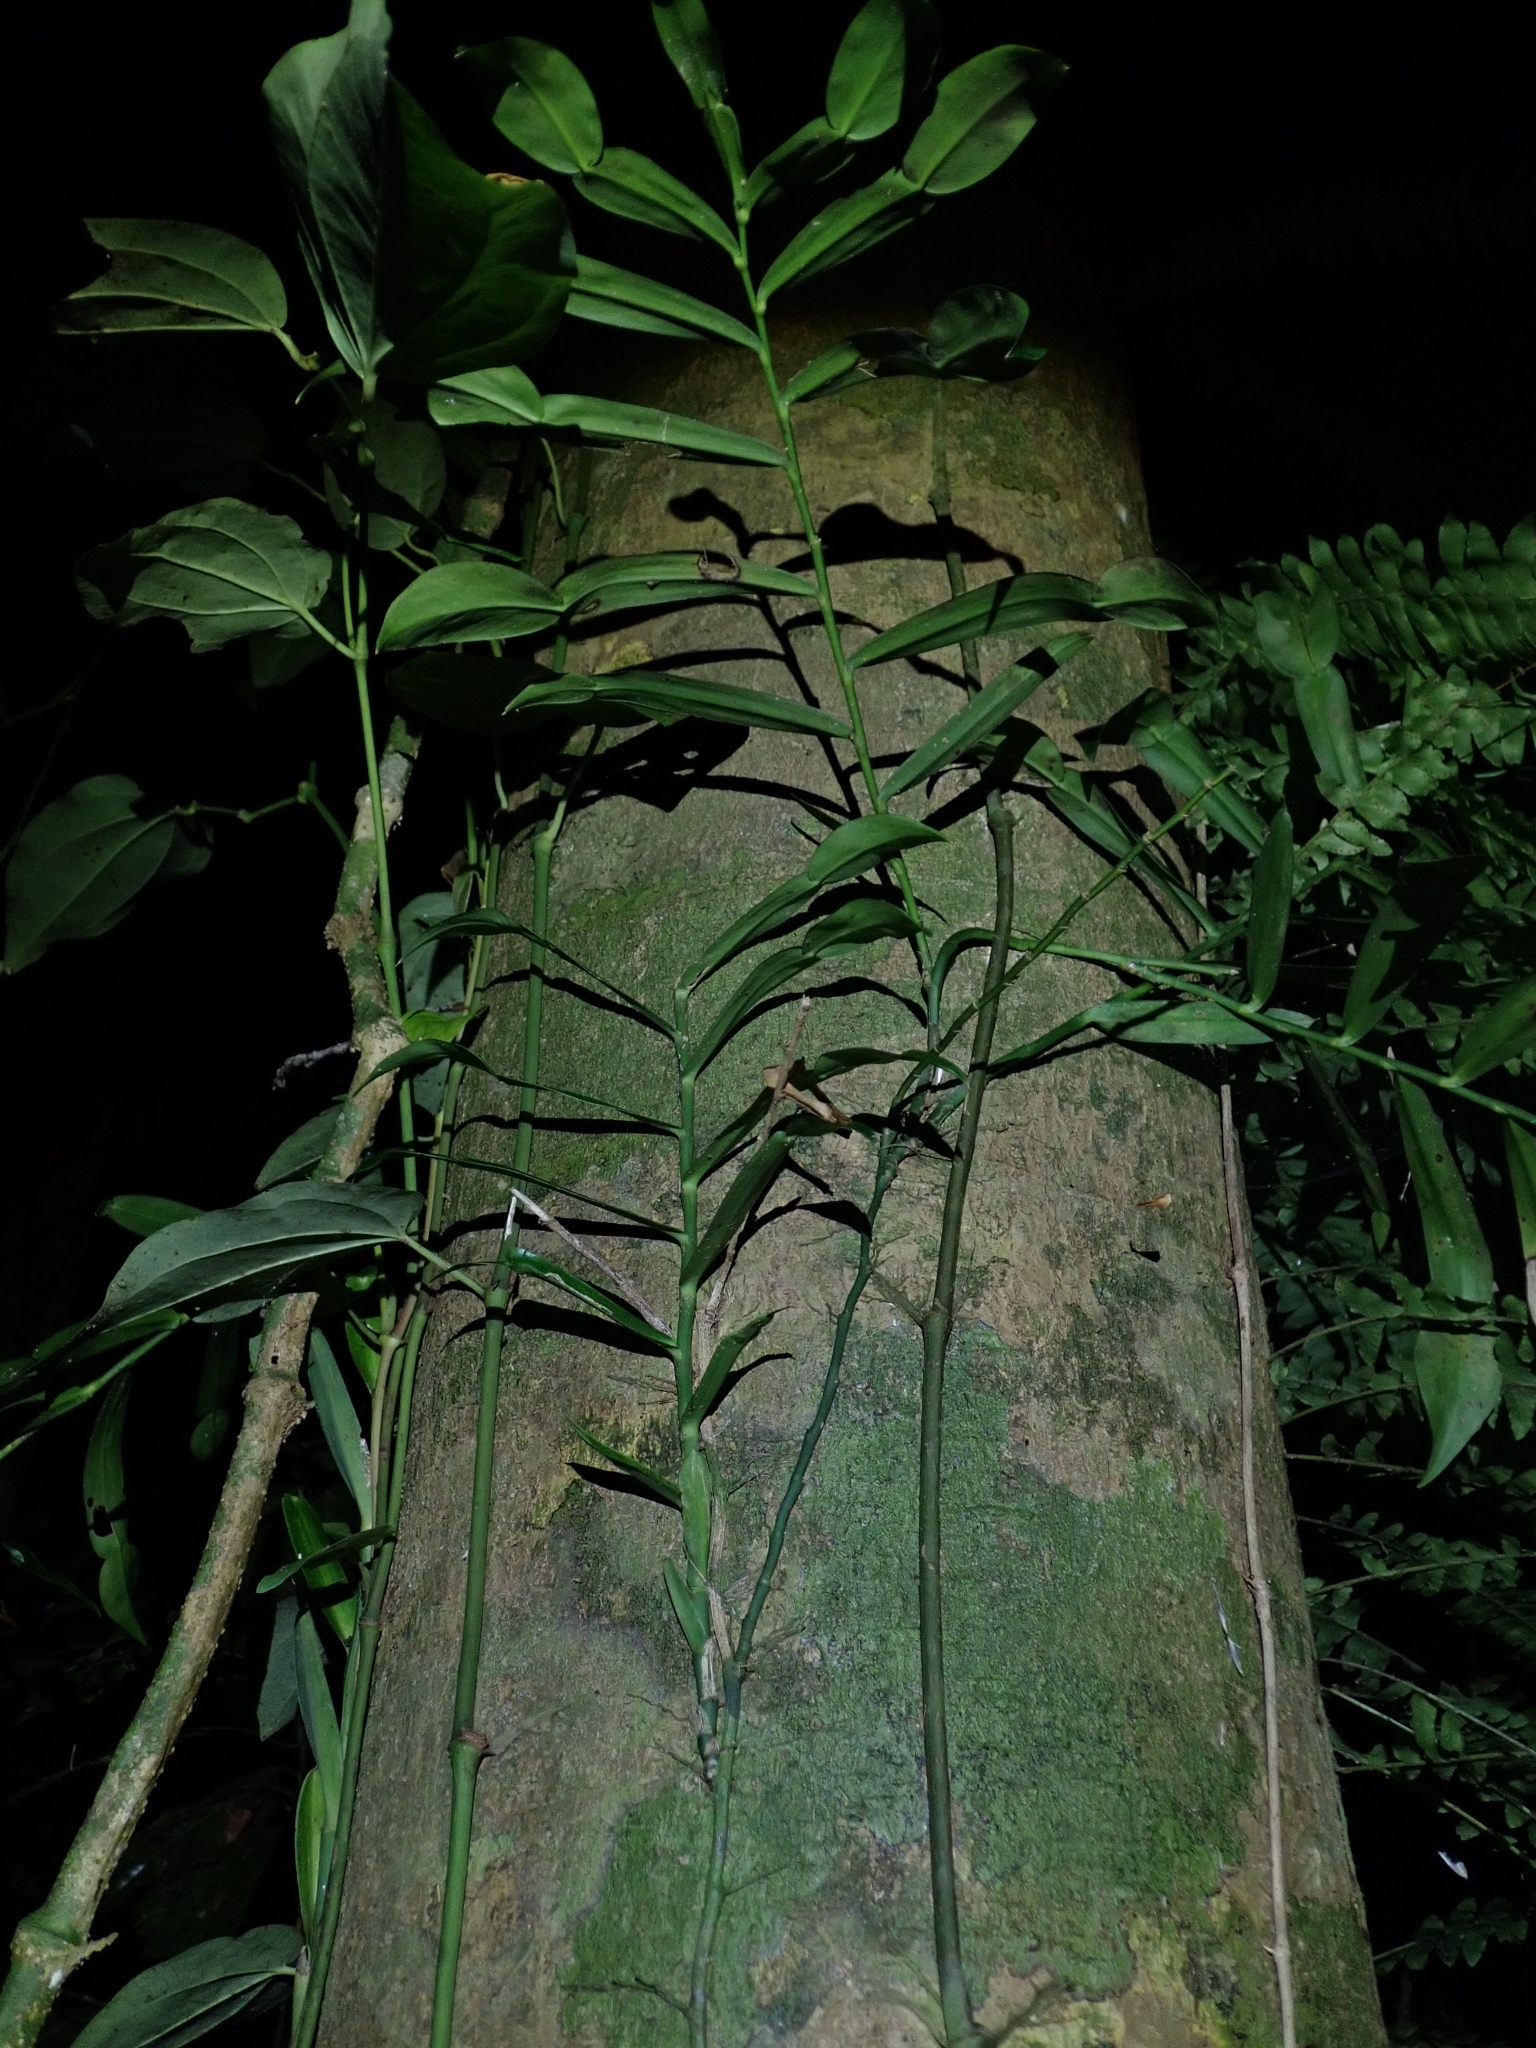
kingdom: Plantae
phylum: Tracheophyta
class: Liliopsida
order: Alismatales
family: Araceae
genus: Pothos
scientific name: Pothos longipes
